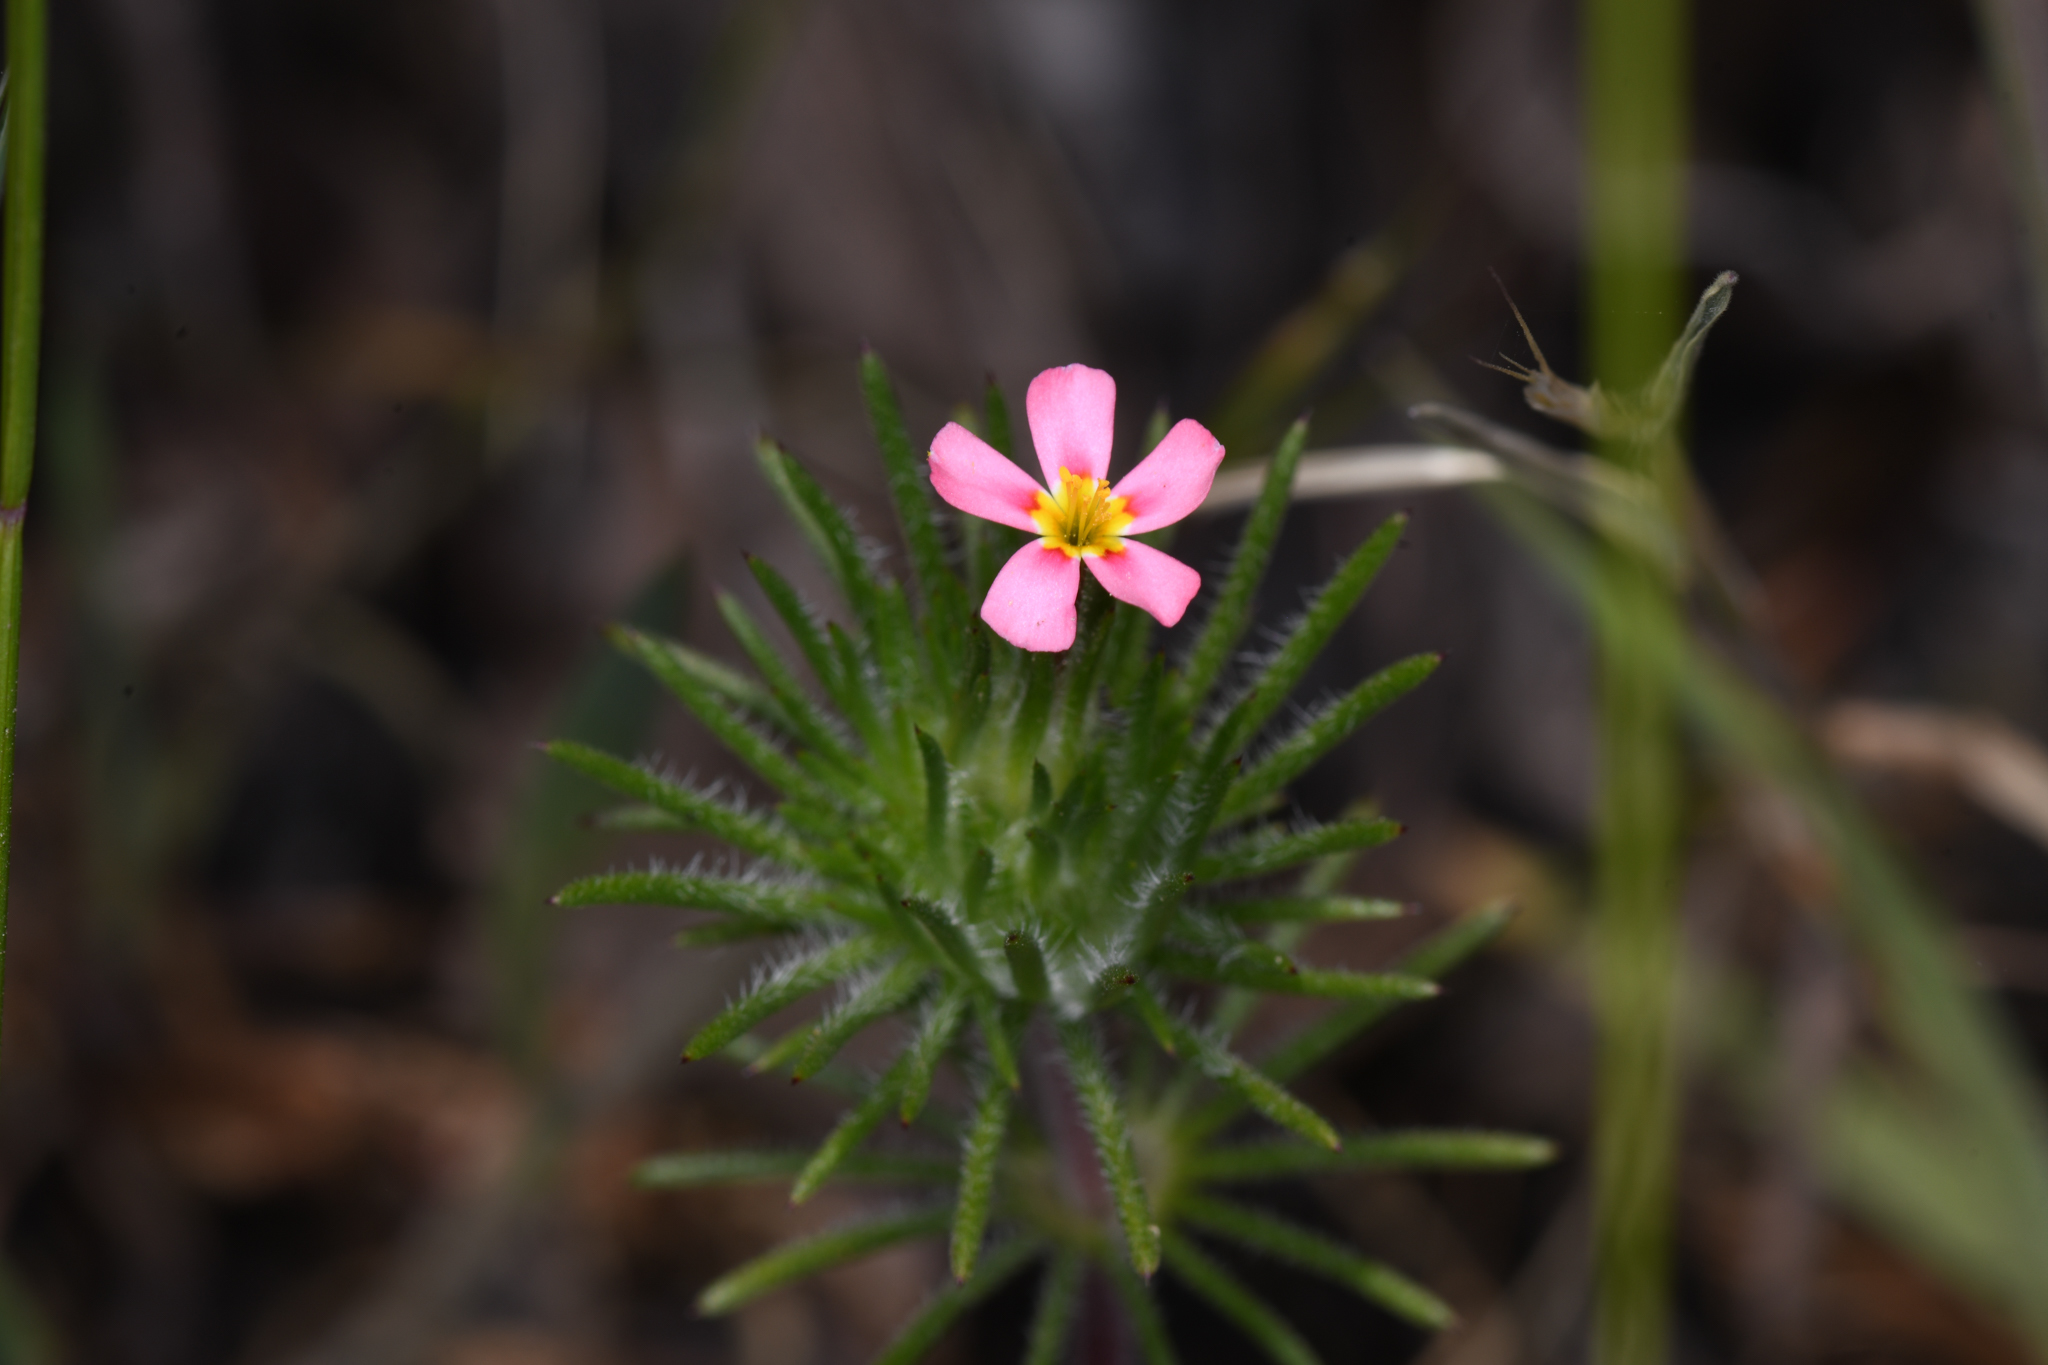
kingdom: Plantae
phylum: Tracheophyta
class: Magnoliopsida
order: Ericales
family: Polemoniaceae
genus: Leptosiphon
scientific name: Leptosiphon ciliatus
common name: Whiskerbrush
